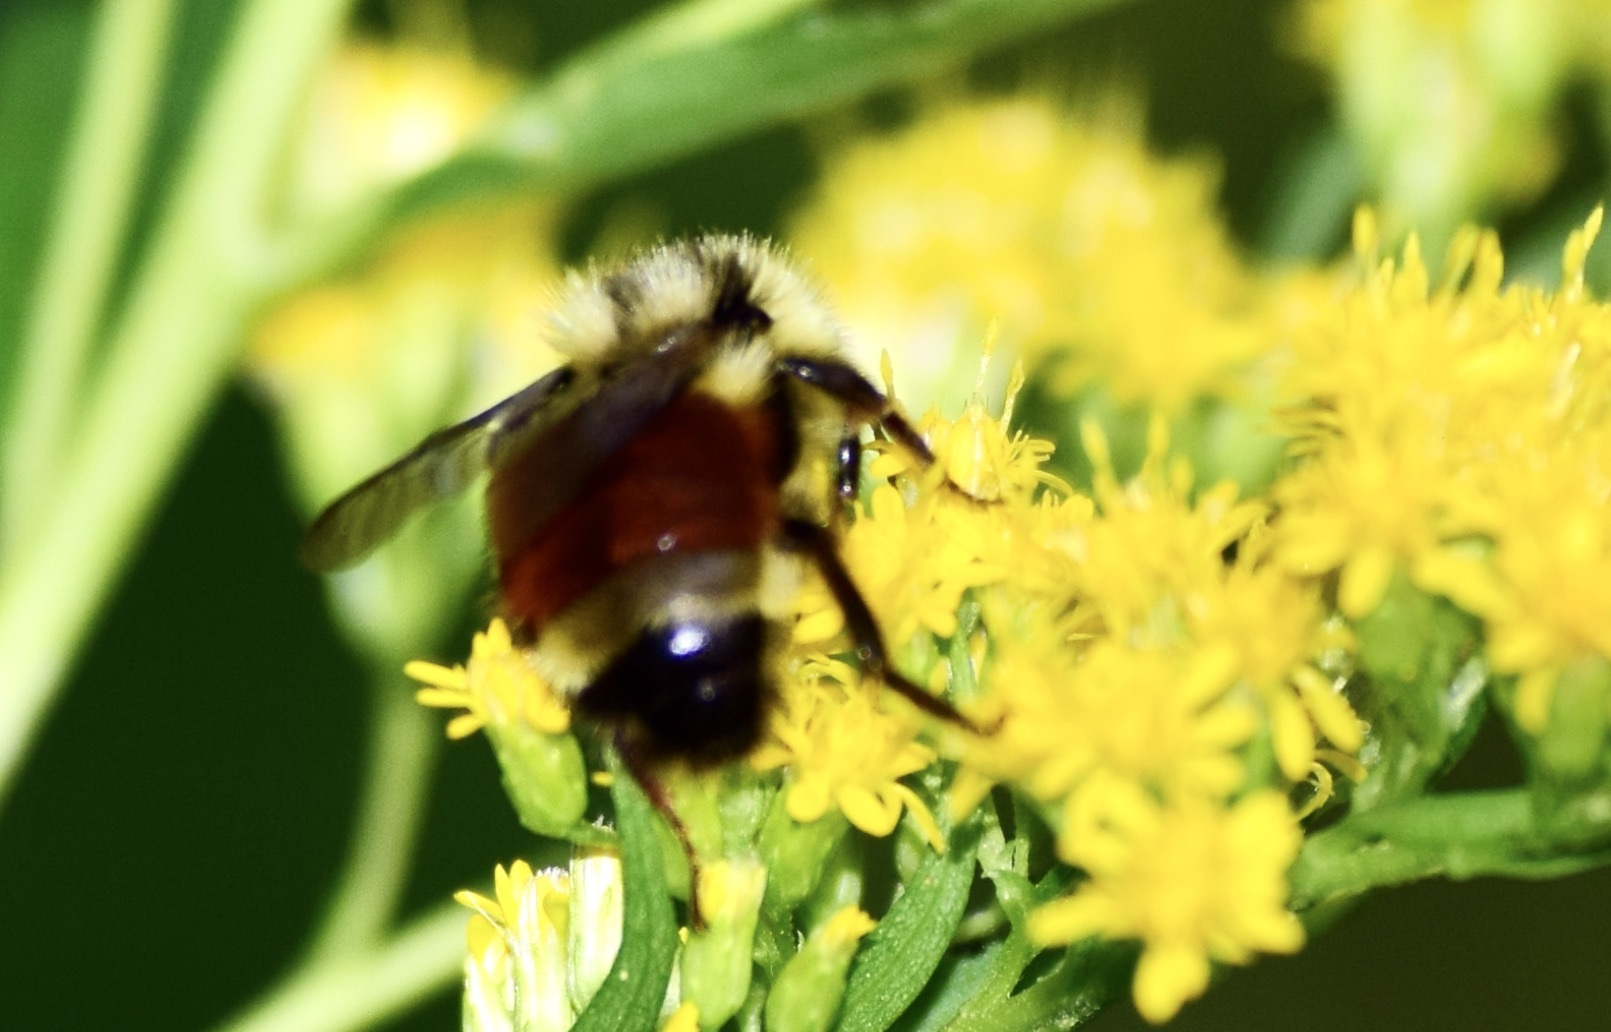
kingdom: Animalia
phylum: Arthropoda
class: Insecta
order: Hymenoptera
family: Apidae
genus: Bombus
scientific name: Bombus ternarius
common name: Tri-colored bumble bee
